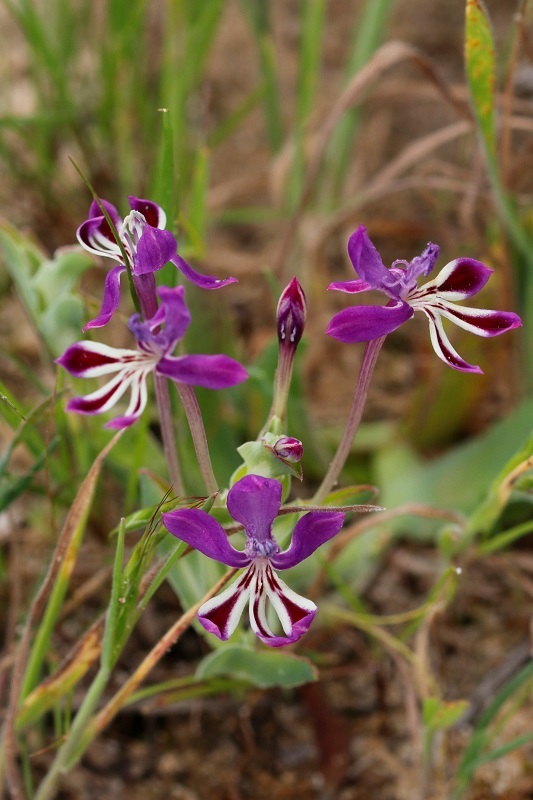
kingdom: Plantae
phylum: Tracheophyta
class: Liliopsida
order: Asparagales
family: Iridaceae
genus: Lapeirousia
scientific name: Lapeirousia jacquinii
